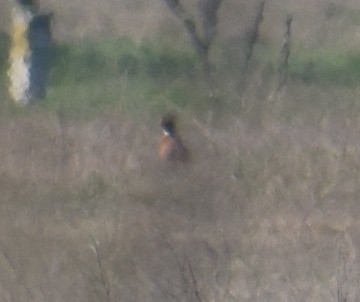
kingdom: Animalia
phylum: Chordata
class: Aves
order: Galliformes
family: Phasianidae
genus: Phasianus
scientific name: Phasianus colchicus
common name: Common pheasant
